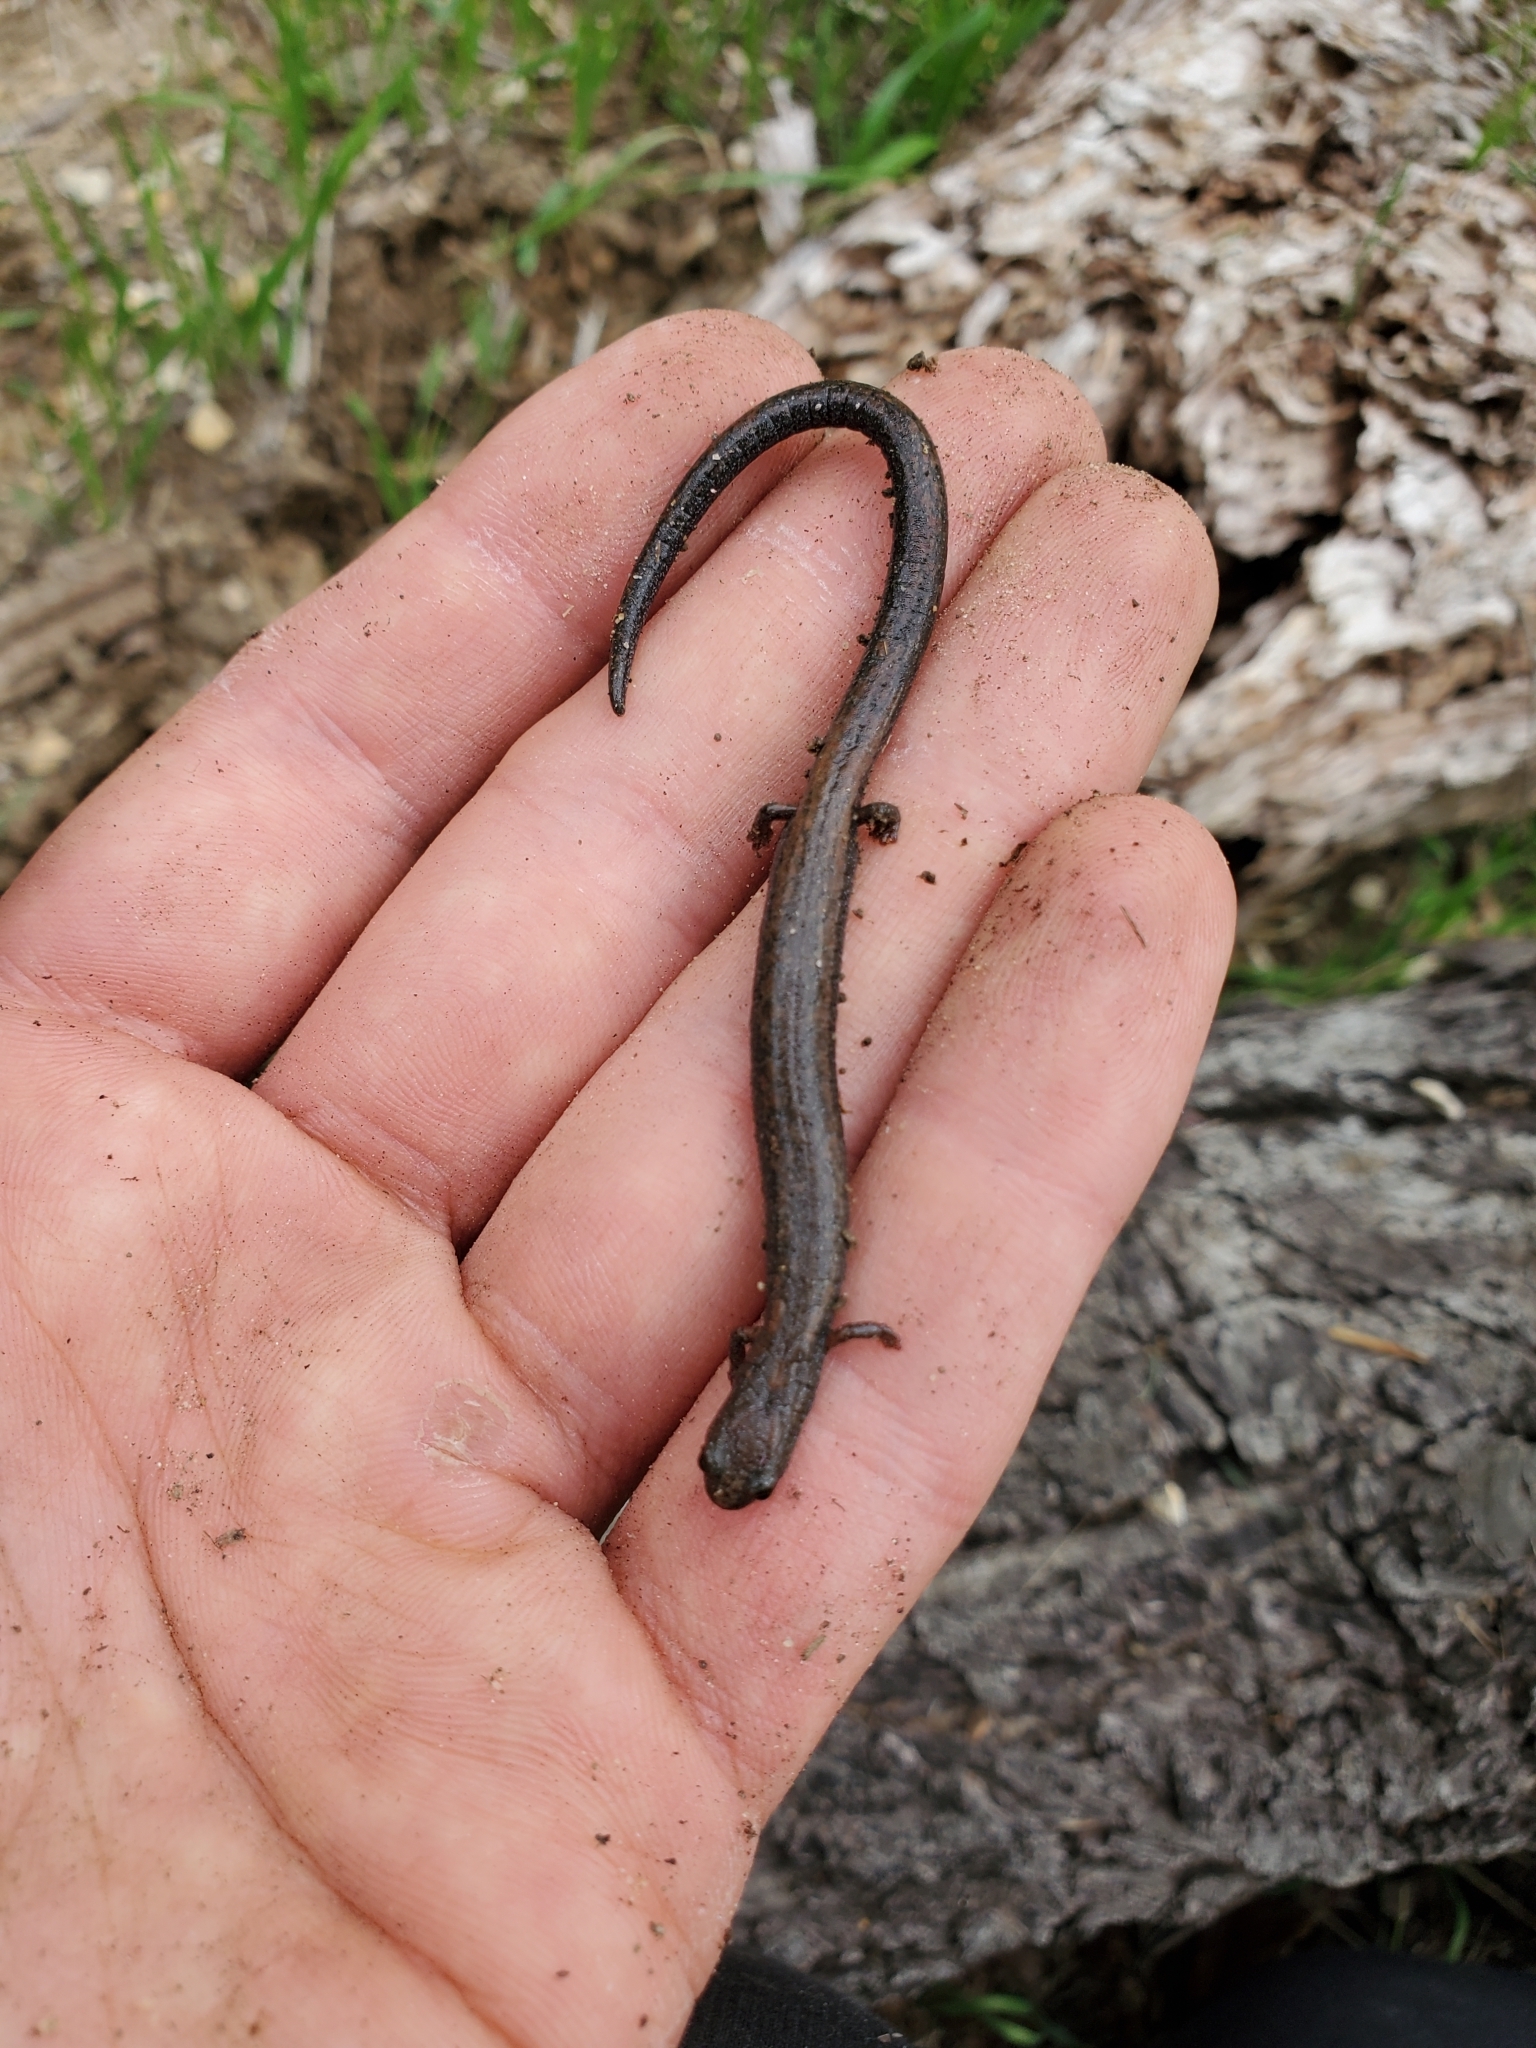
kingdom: Animalia
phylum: Chordata
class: Amphibia
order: Caudata
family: Plethodontidae
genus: Batrachoseps
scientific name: Batrachoseps nigriventris
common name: Black-bellied slender salamander
